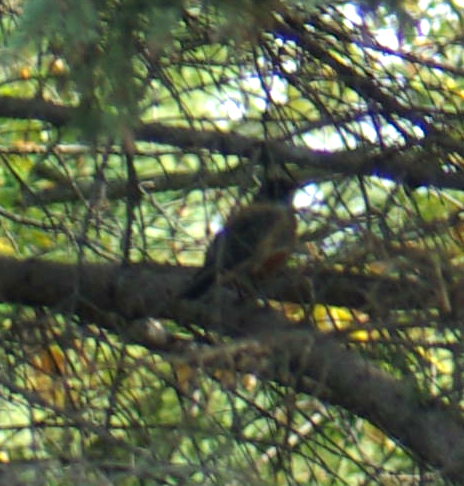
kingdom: Animalia
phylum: Chordata
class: Aves
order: Passeriformes
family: Turdidae
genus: Turdus
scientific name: Turdus migratorius
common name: American robin
